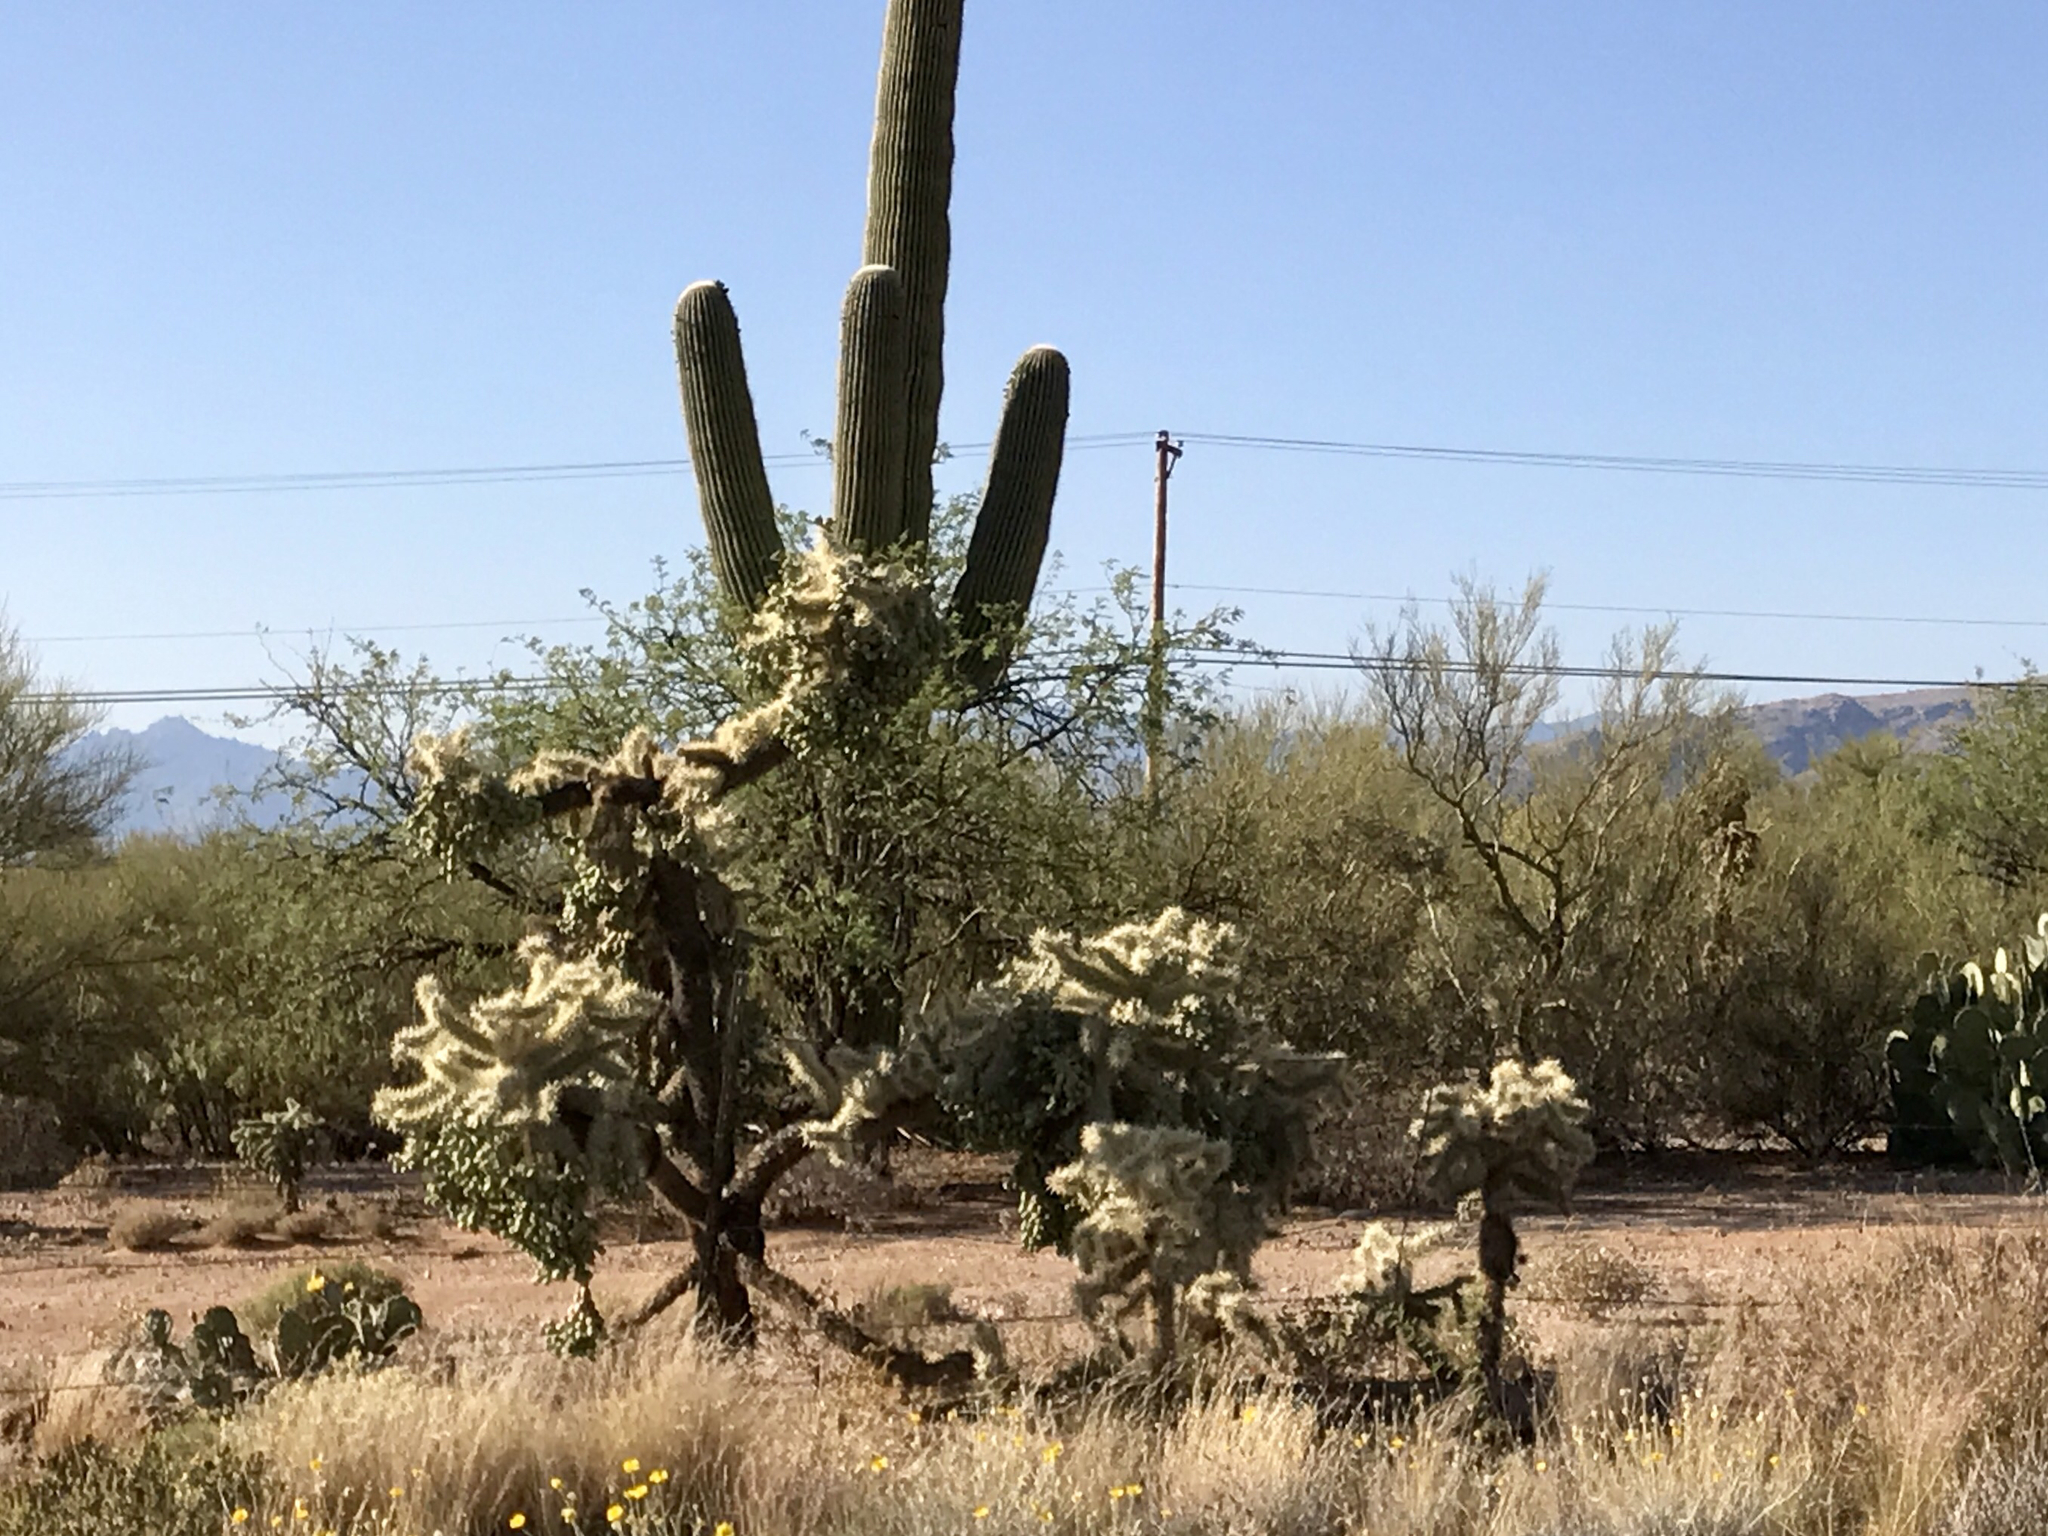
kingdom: Plantae
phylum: Tracheophyta
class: Magnoliopsida
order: Caryophyllales
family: Cactaceae
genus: Cylindropuntia
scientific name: Cylindropuntia fulgida
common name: Jumping cholla
